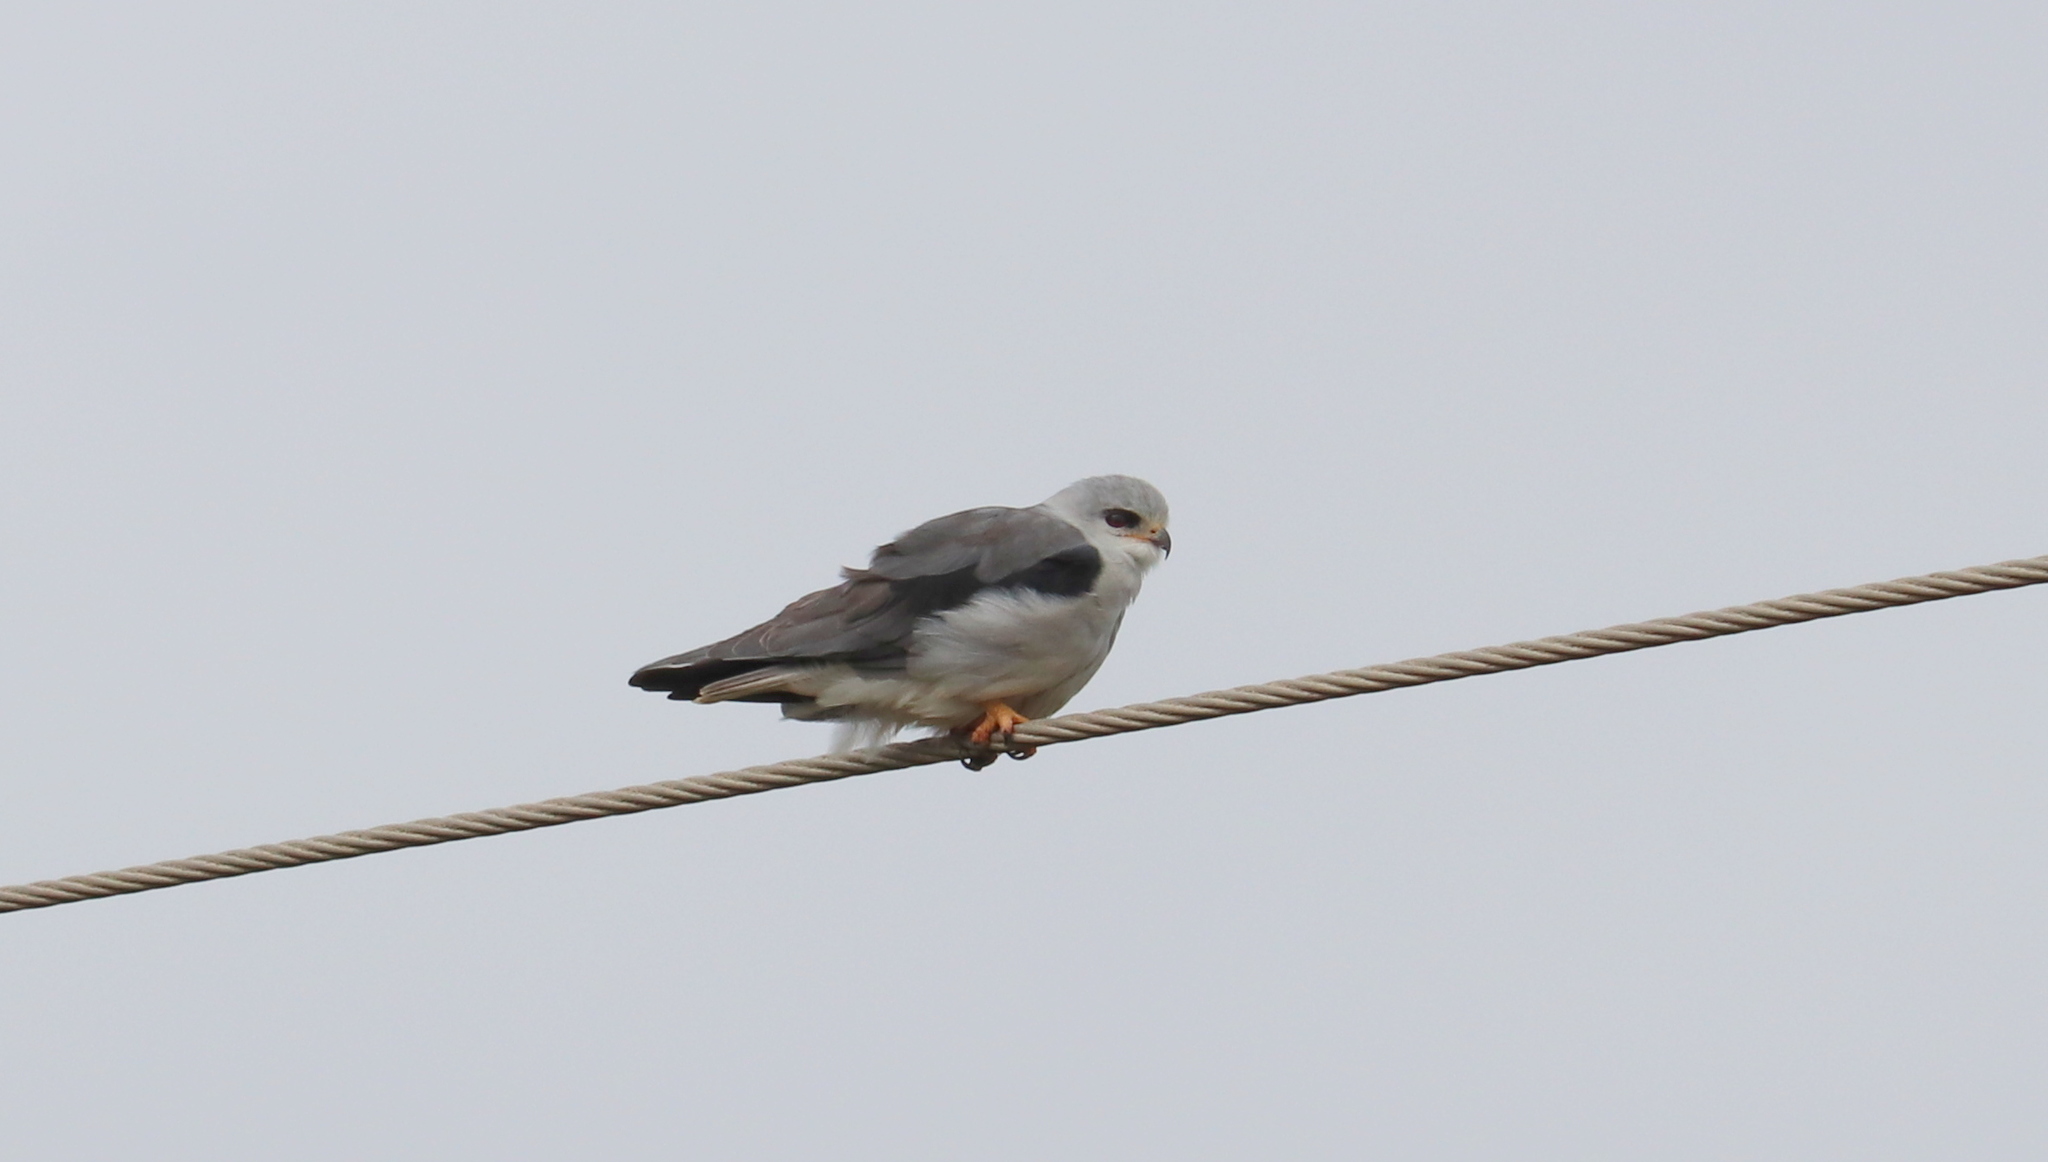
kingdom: Animalia
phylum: Chordata
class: Aves
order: Accipitriformes
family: Accipitridae
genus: Elanus
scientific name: Elanus caeruleus
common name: Black-winged kite
